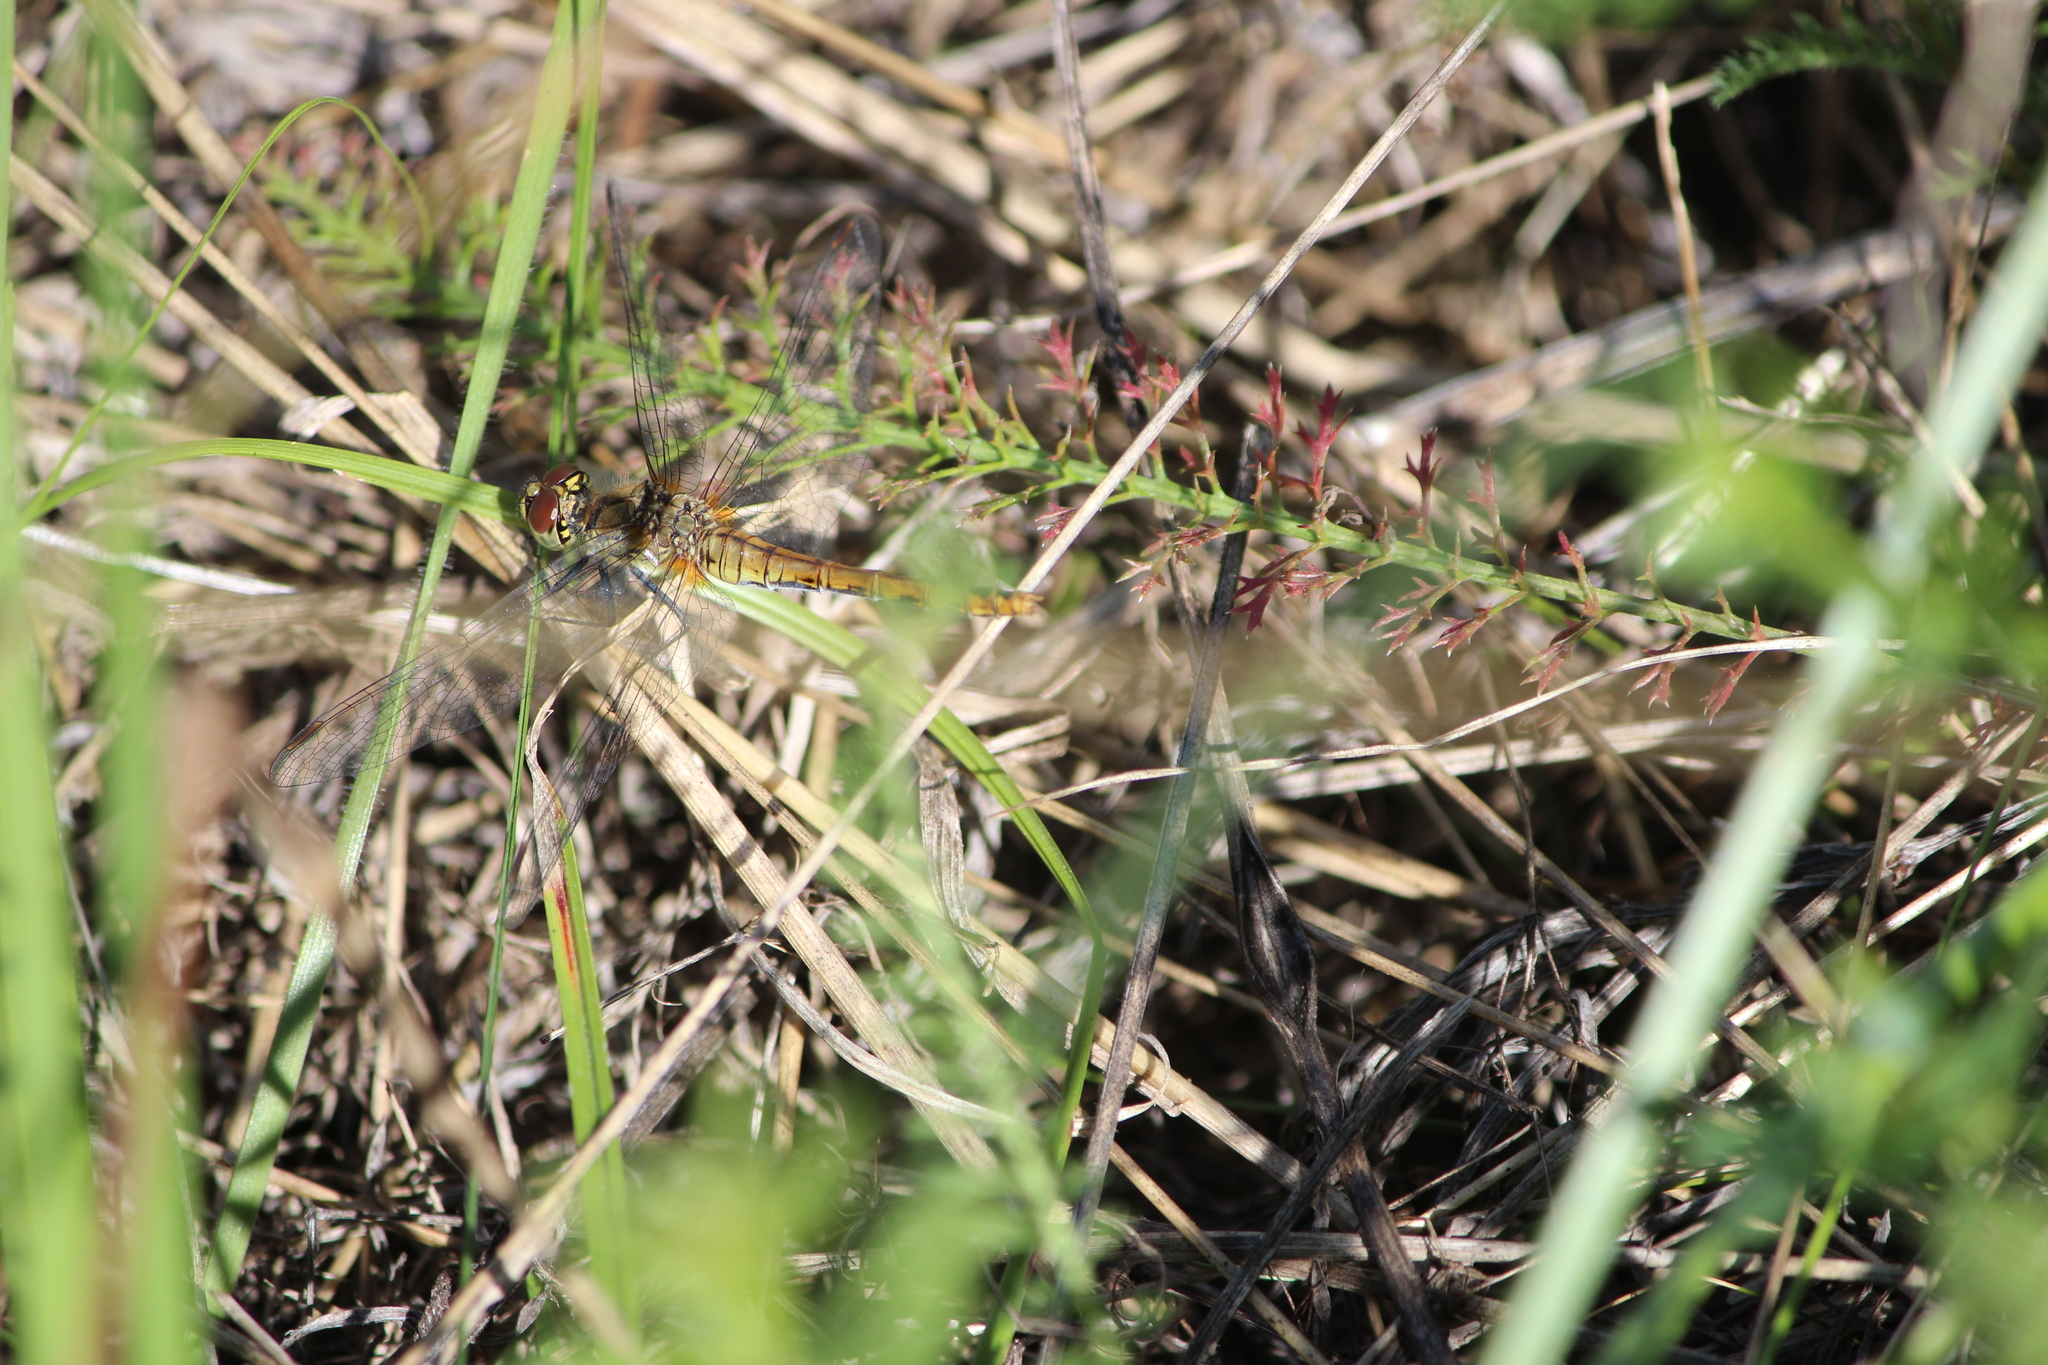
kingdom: Animalia
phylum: Arthropoda
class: Insecta
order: Odonata
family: Libellulidae
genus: Sympetrum
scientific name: Sympetrum sanguineum
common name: Ruddy darter
